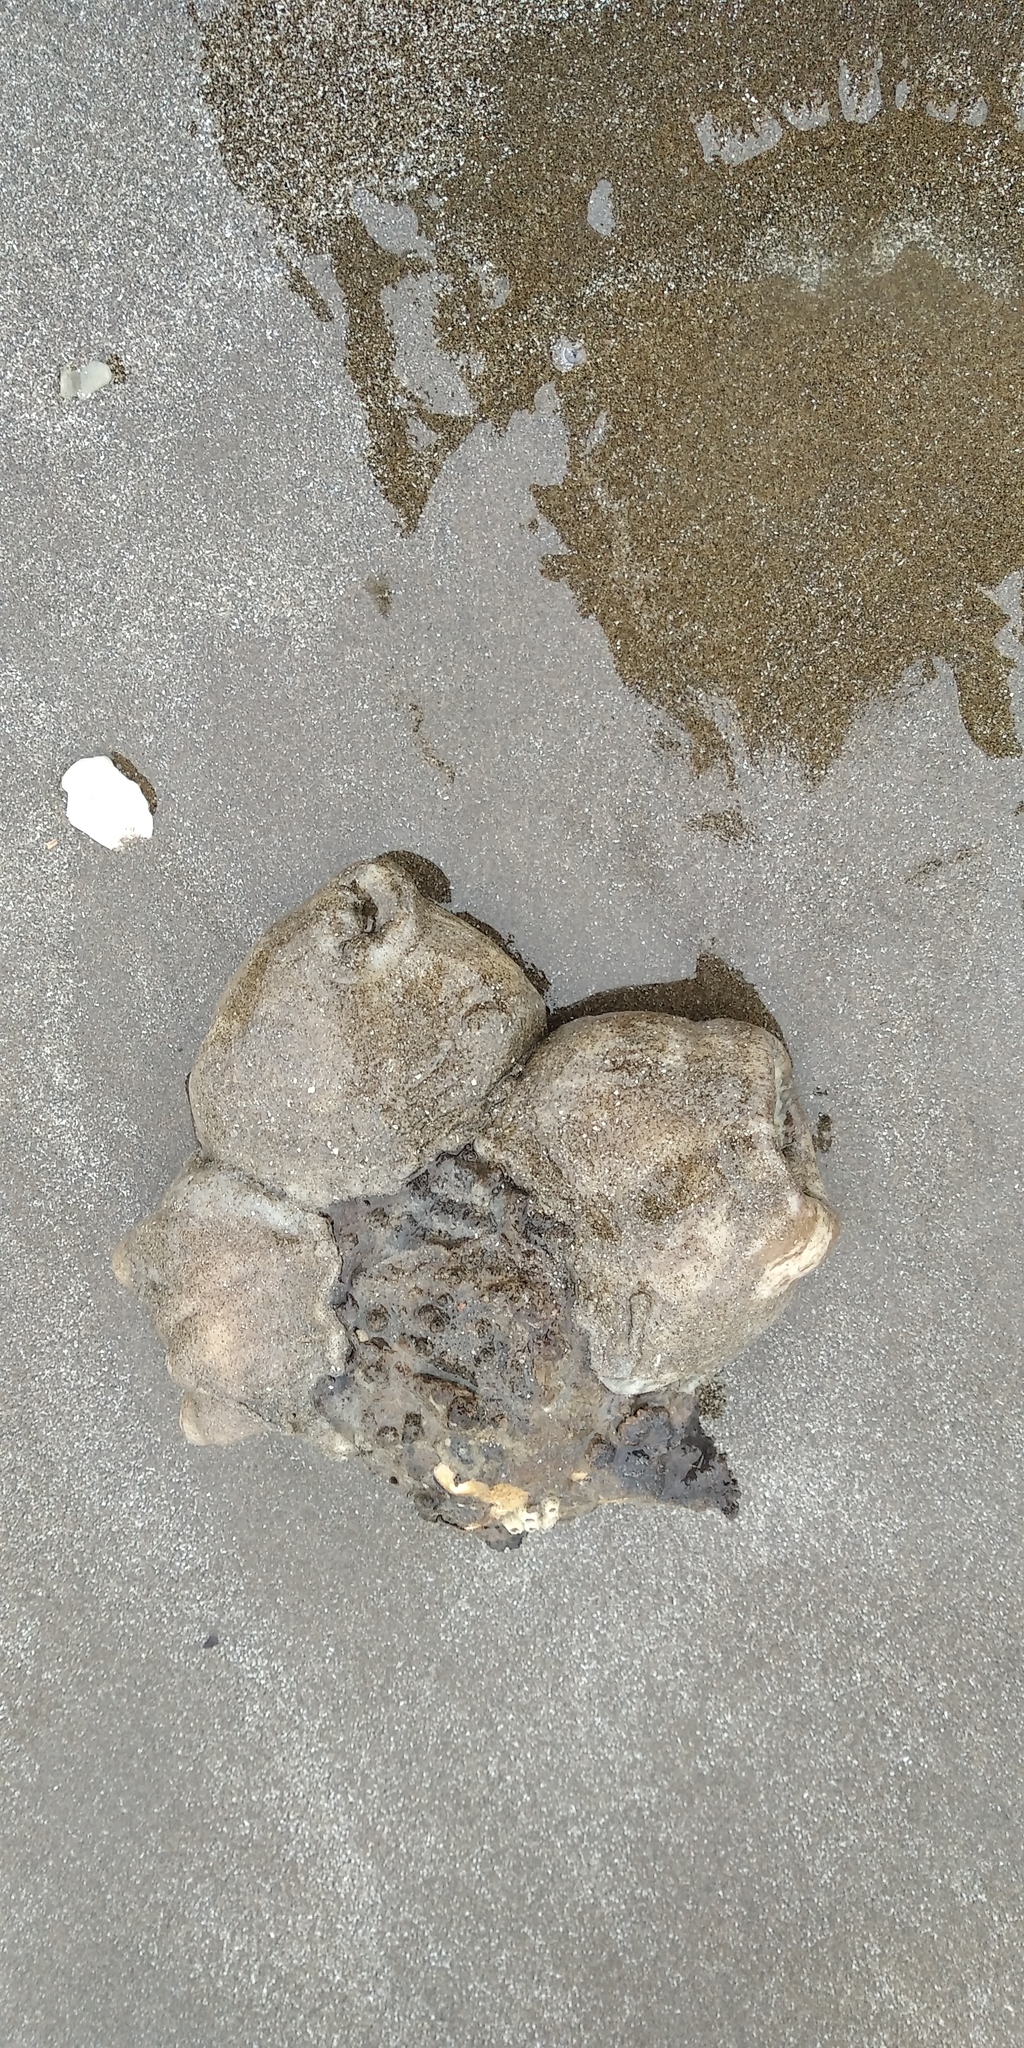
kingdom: Animalia
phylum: Cnidaria
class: Anthozoa
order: Actiniaria
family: Hormathiidae
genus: Calliactis
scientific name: Calliactis tricolor
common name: Hermit anemone
